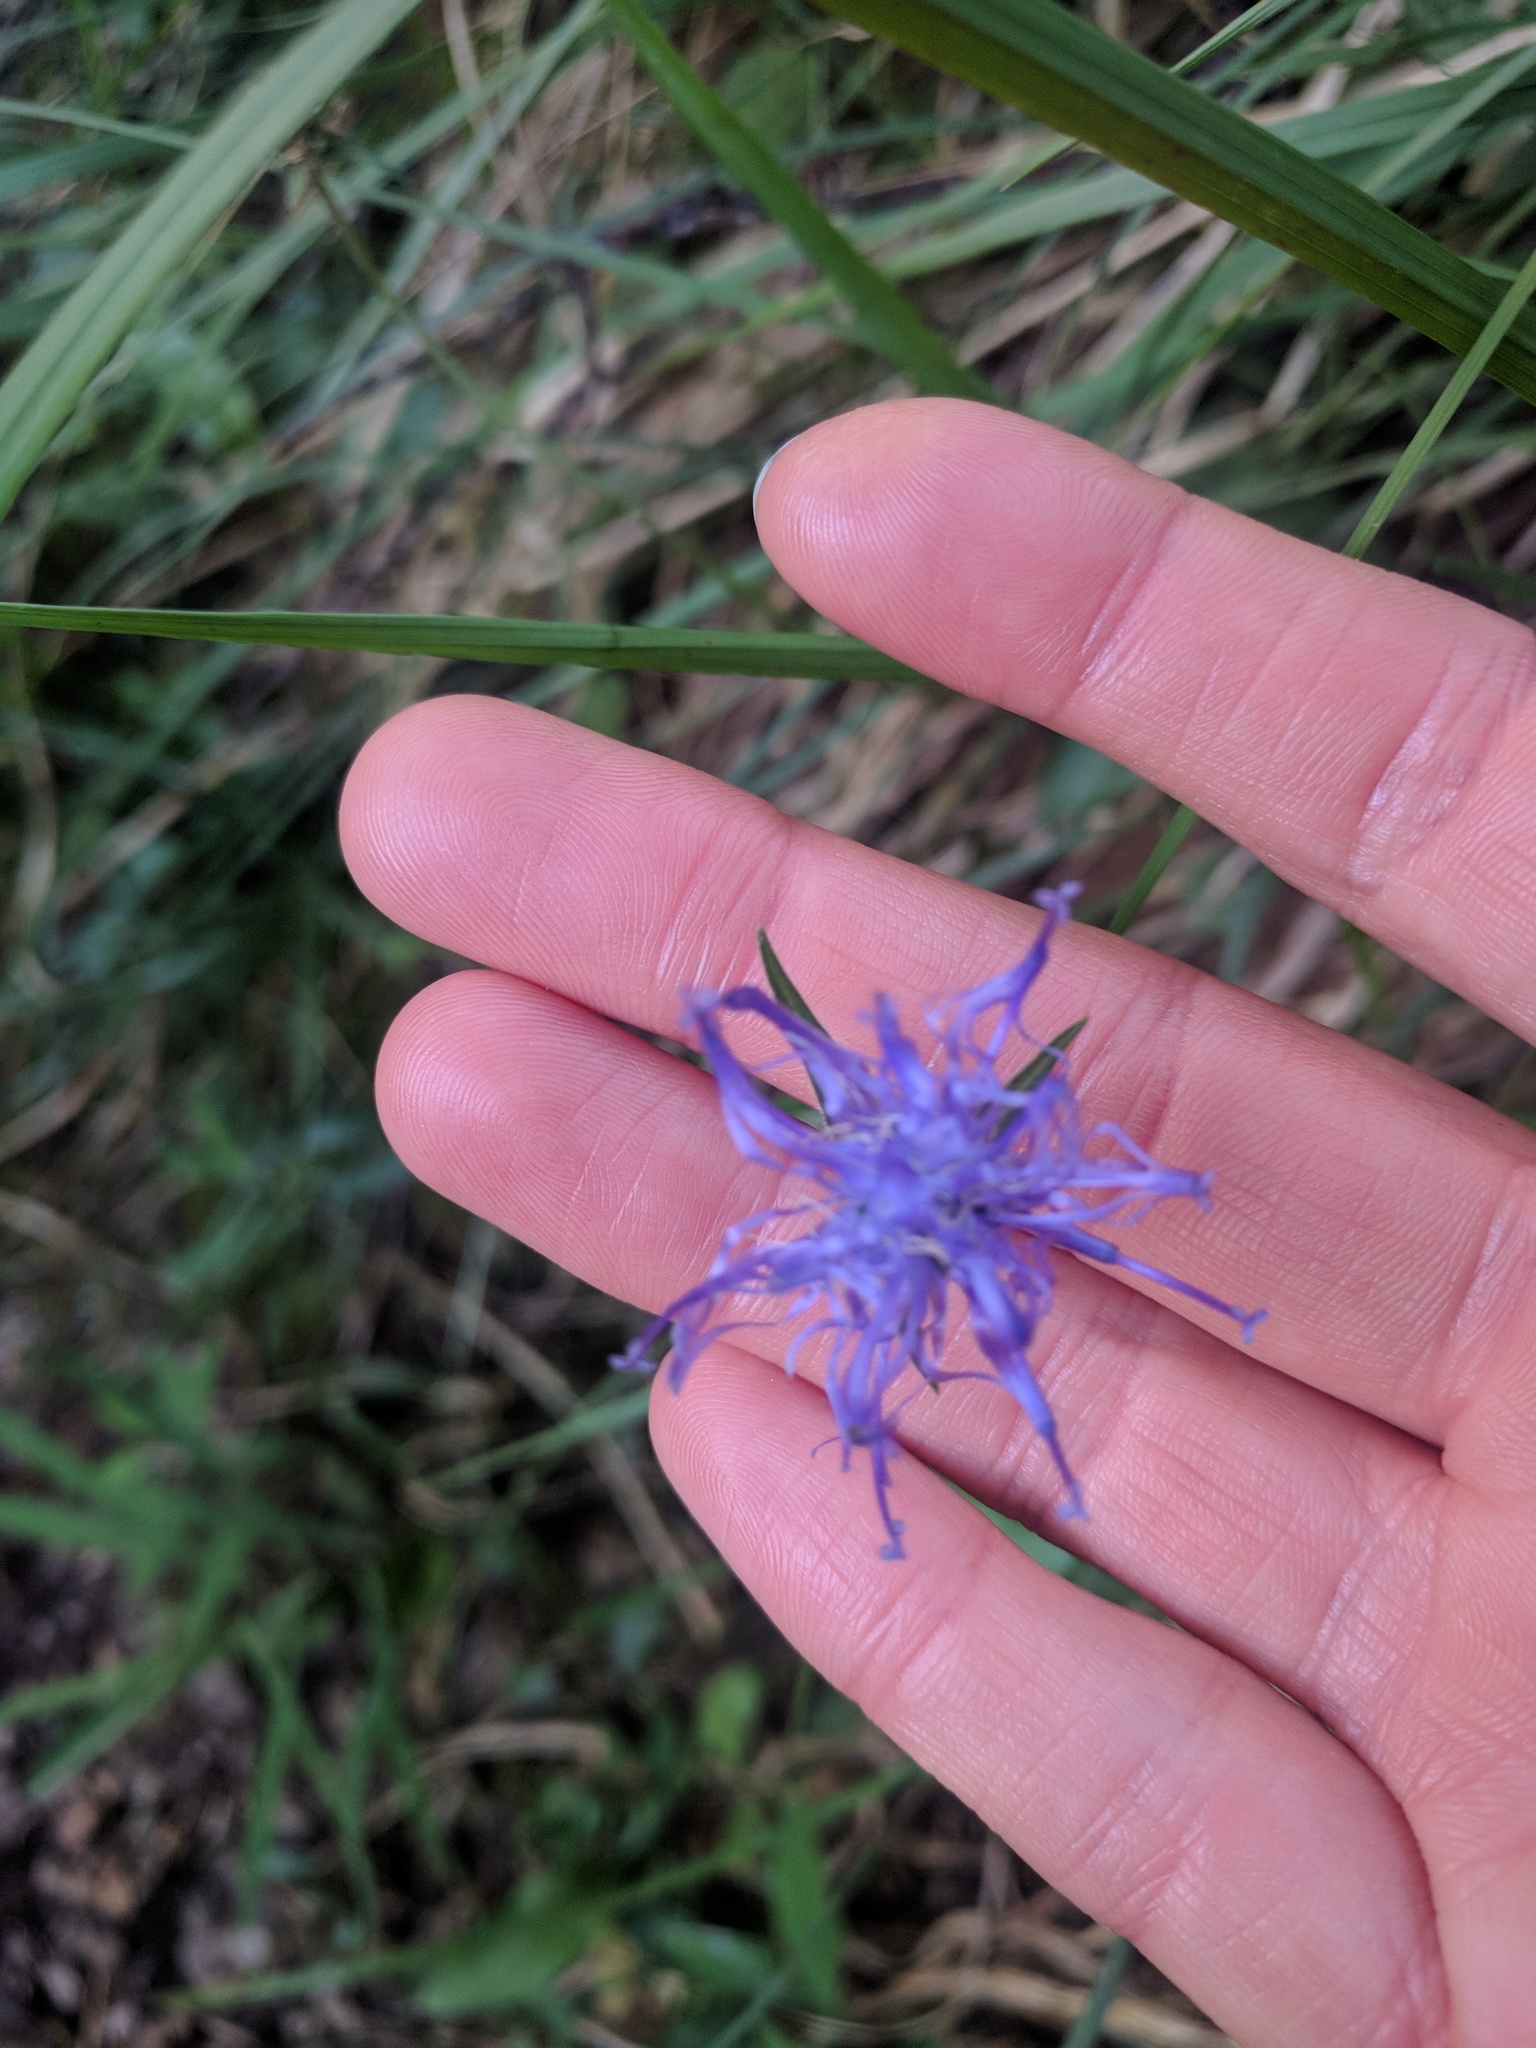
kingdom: Plantae
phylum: Tracheophyta
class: Magnoliopsida
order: Asterales
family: Campanulaceae
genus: Phyteuma
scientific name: Phyteuma orbiculare
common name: Round-headed rampion
